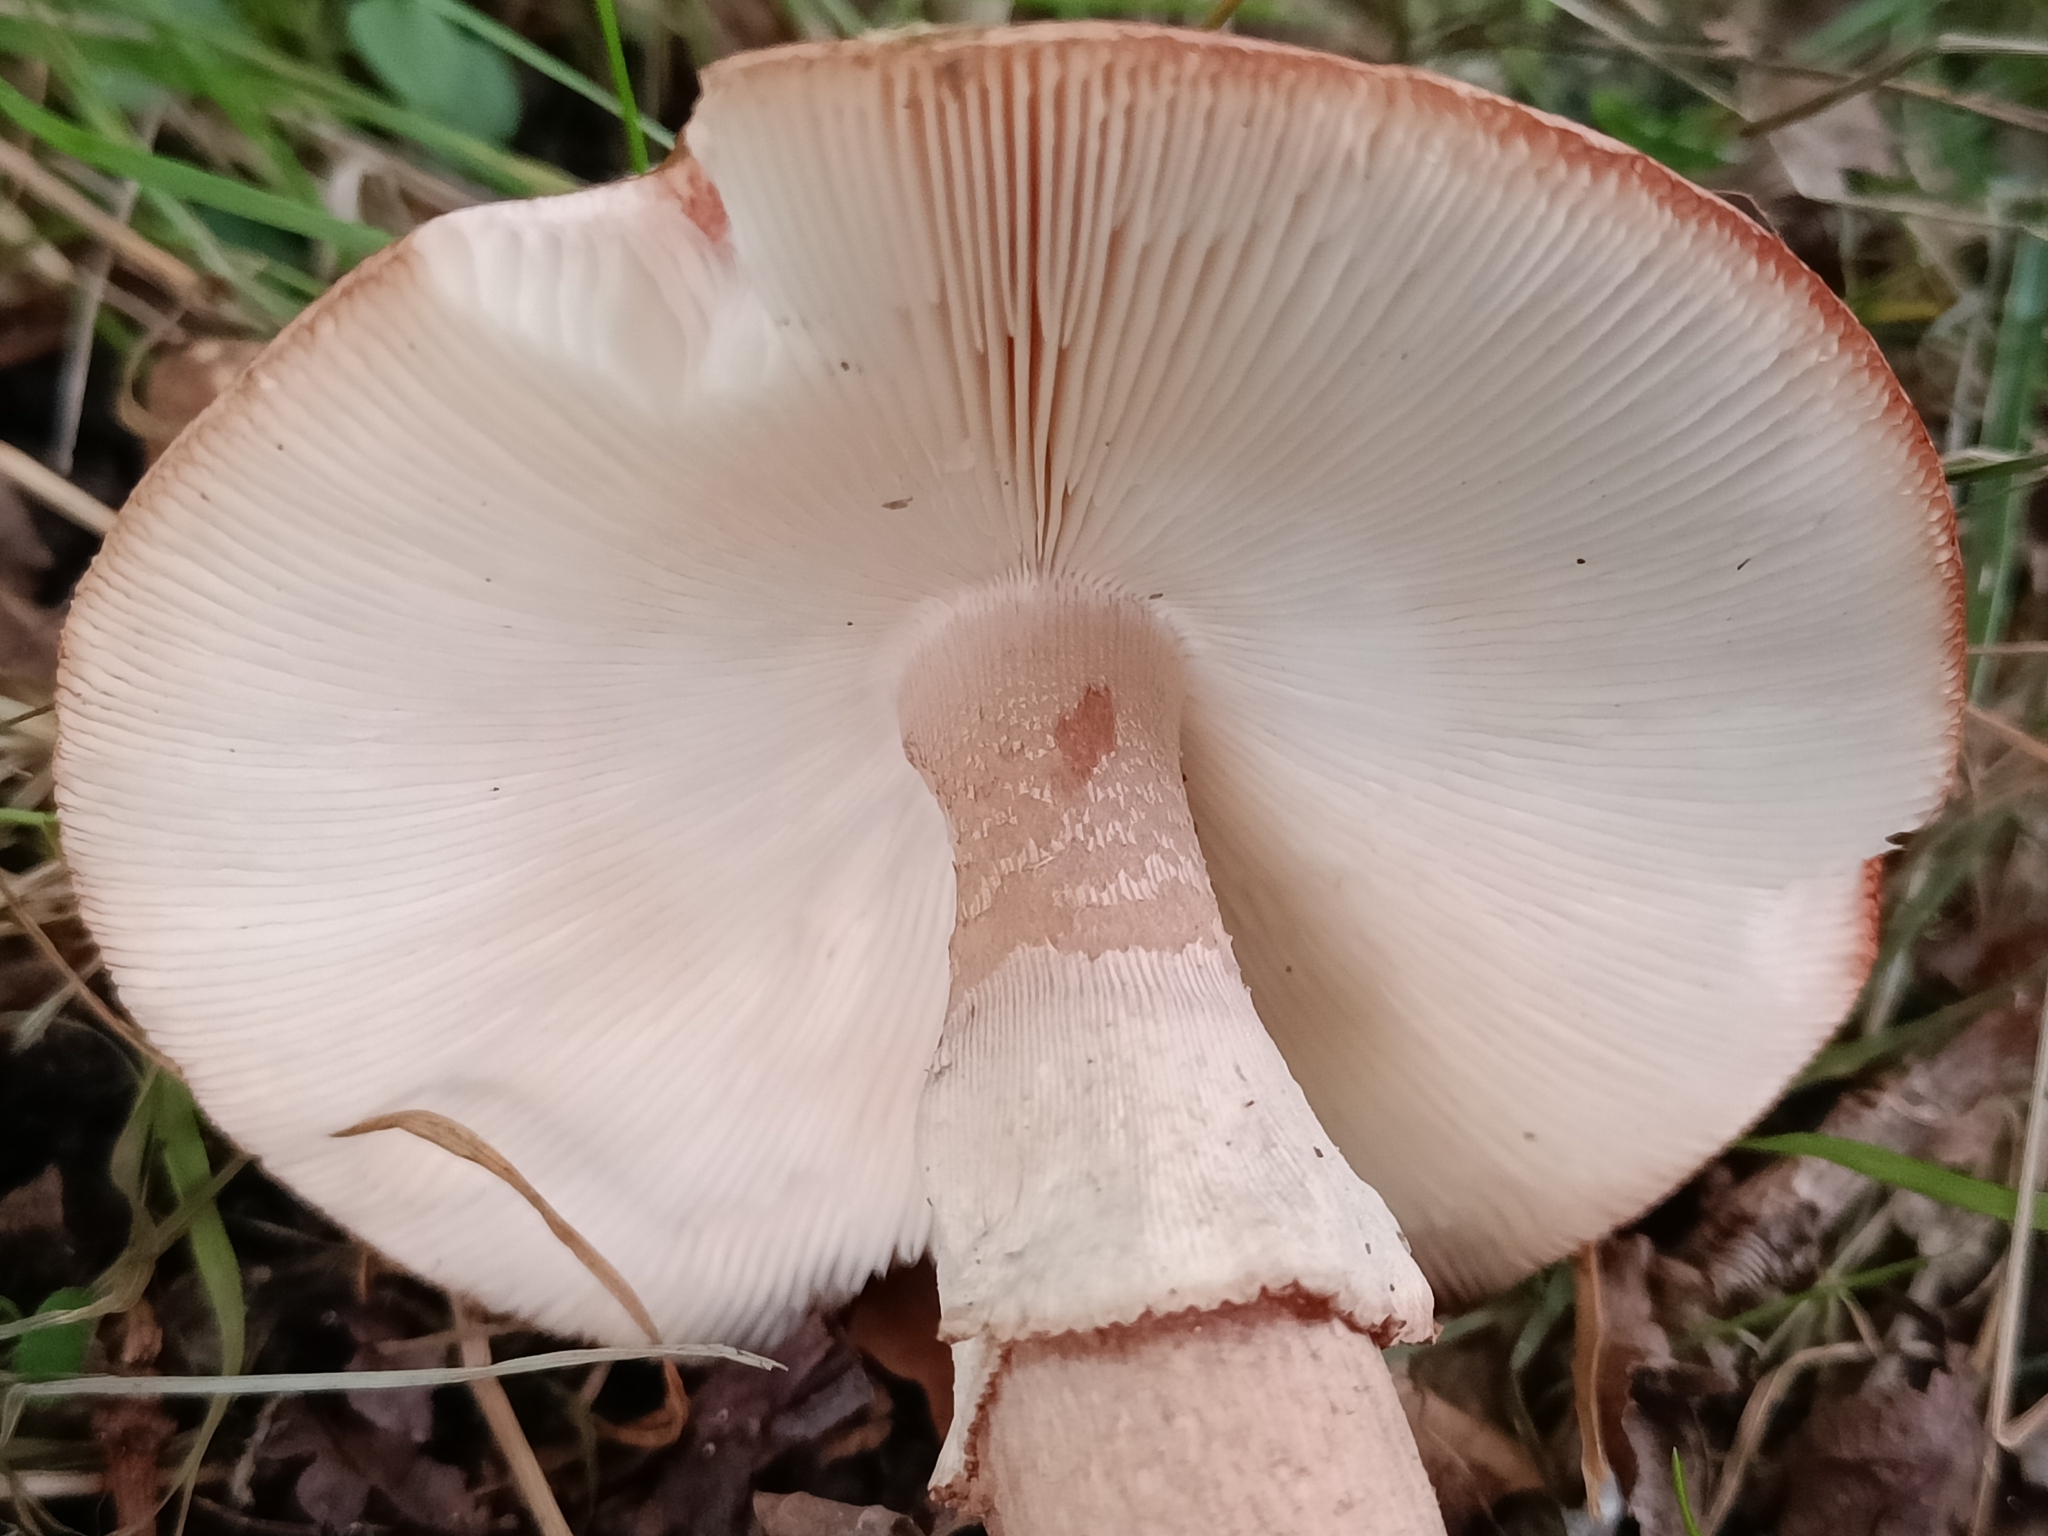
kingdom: Fungi
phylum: Basidiomycota
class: Agaricomycetes
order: Agaricales
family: Amanitaceae
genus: Amanita
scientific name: Amanita rubescens
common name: Blusher
